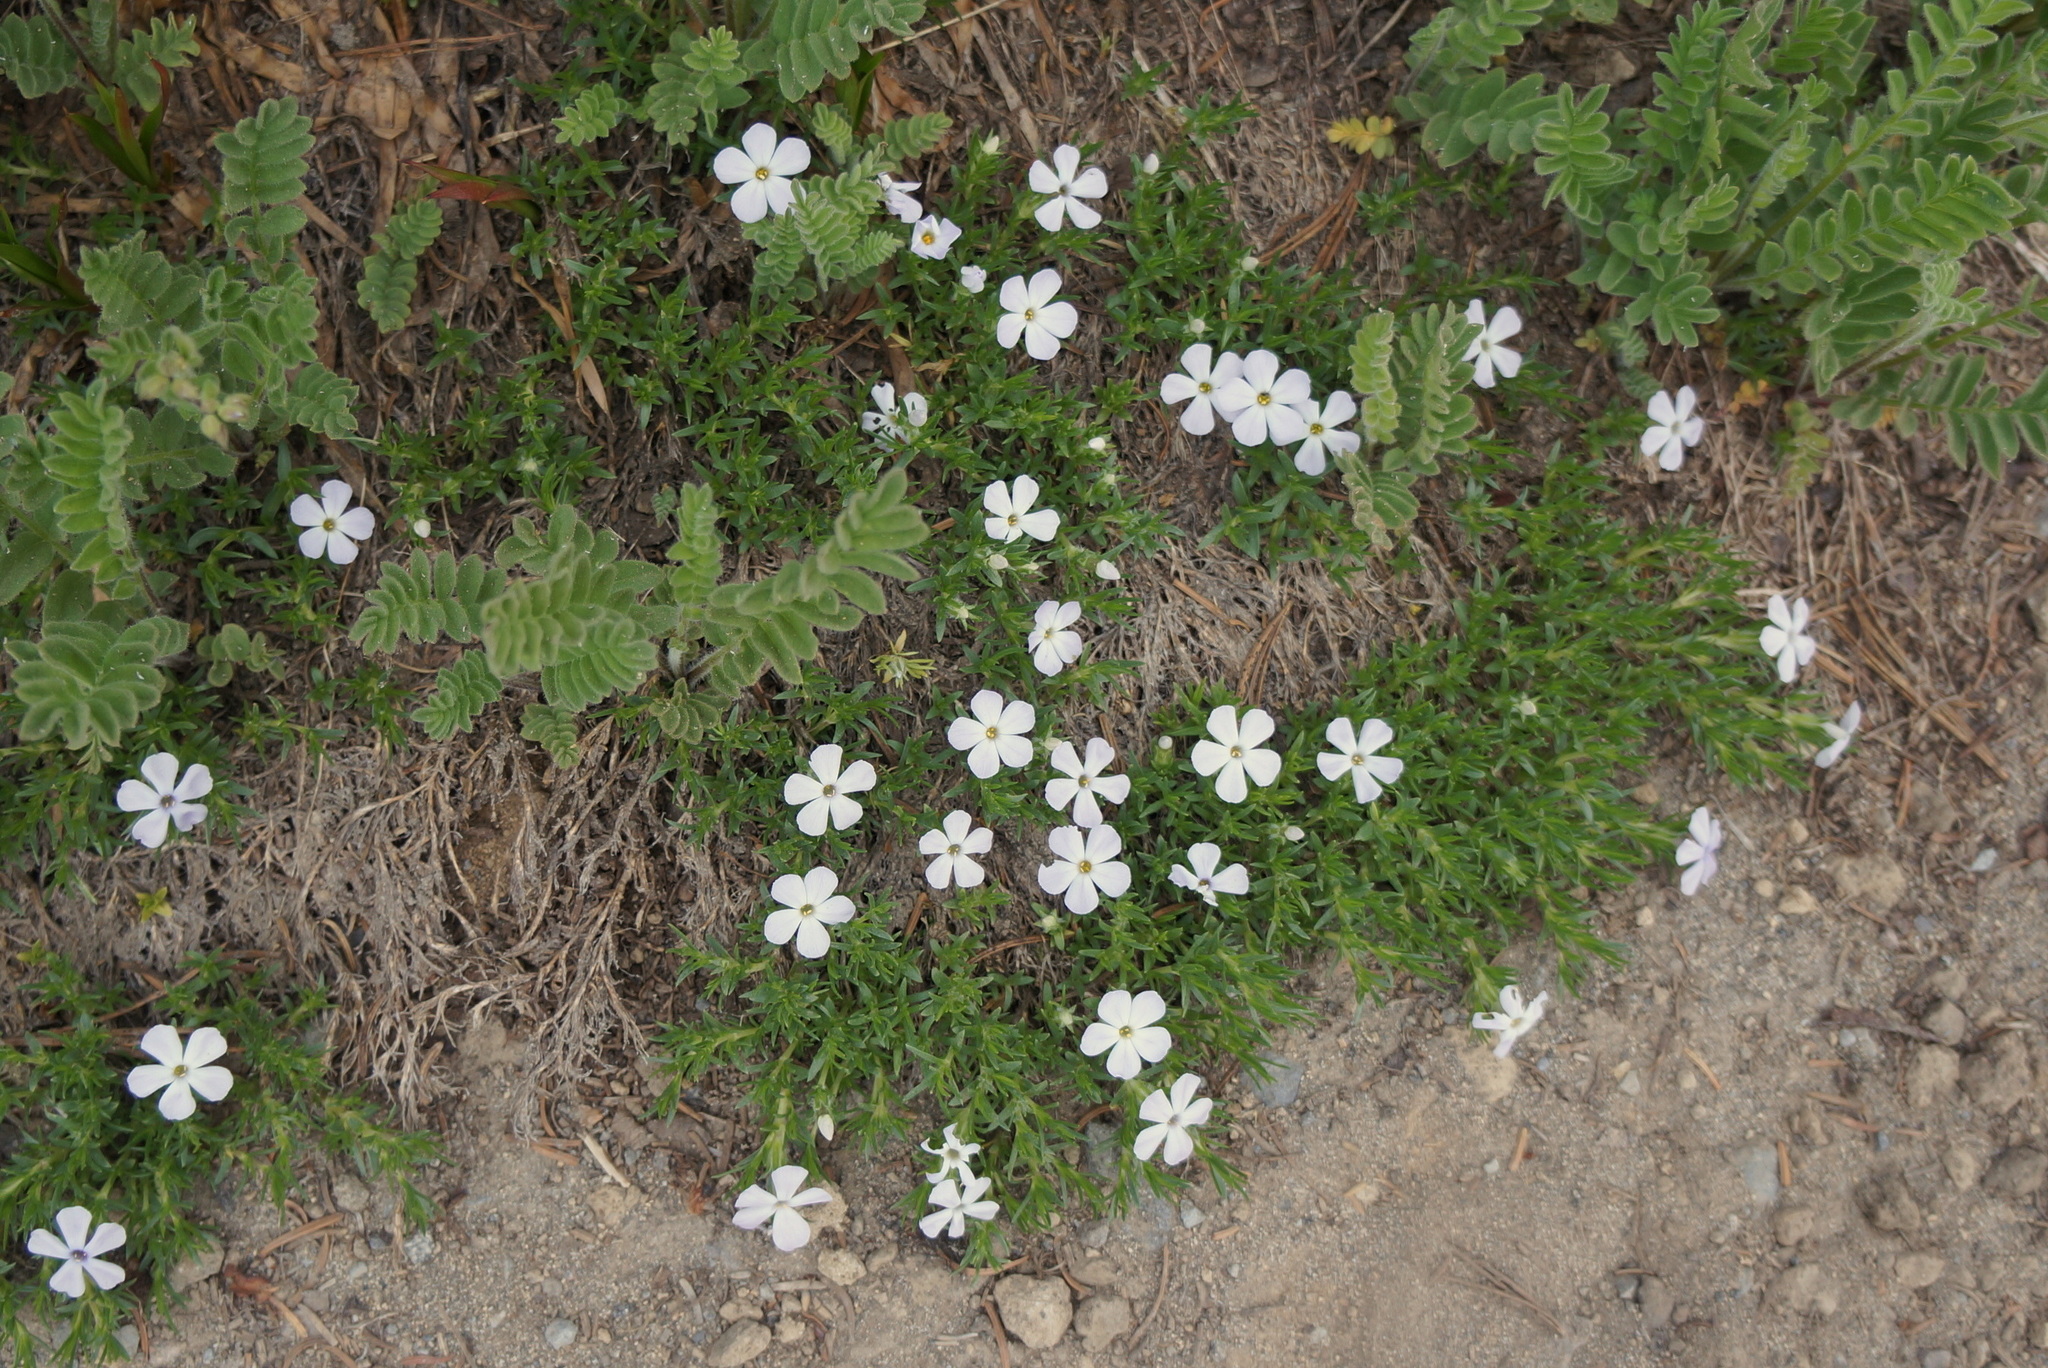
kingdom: Plantae
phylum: Tracheophyta
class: Magnoliopsida
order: Ericales
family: Polemoniaceae
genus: Phlox
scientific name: Phlox diffusa
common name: Mat phlox
